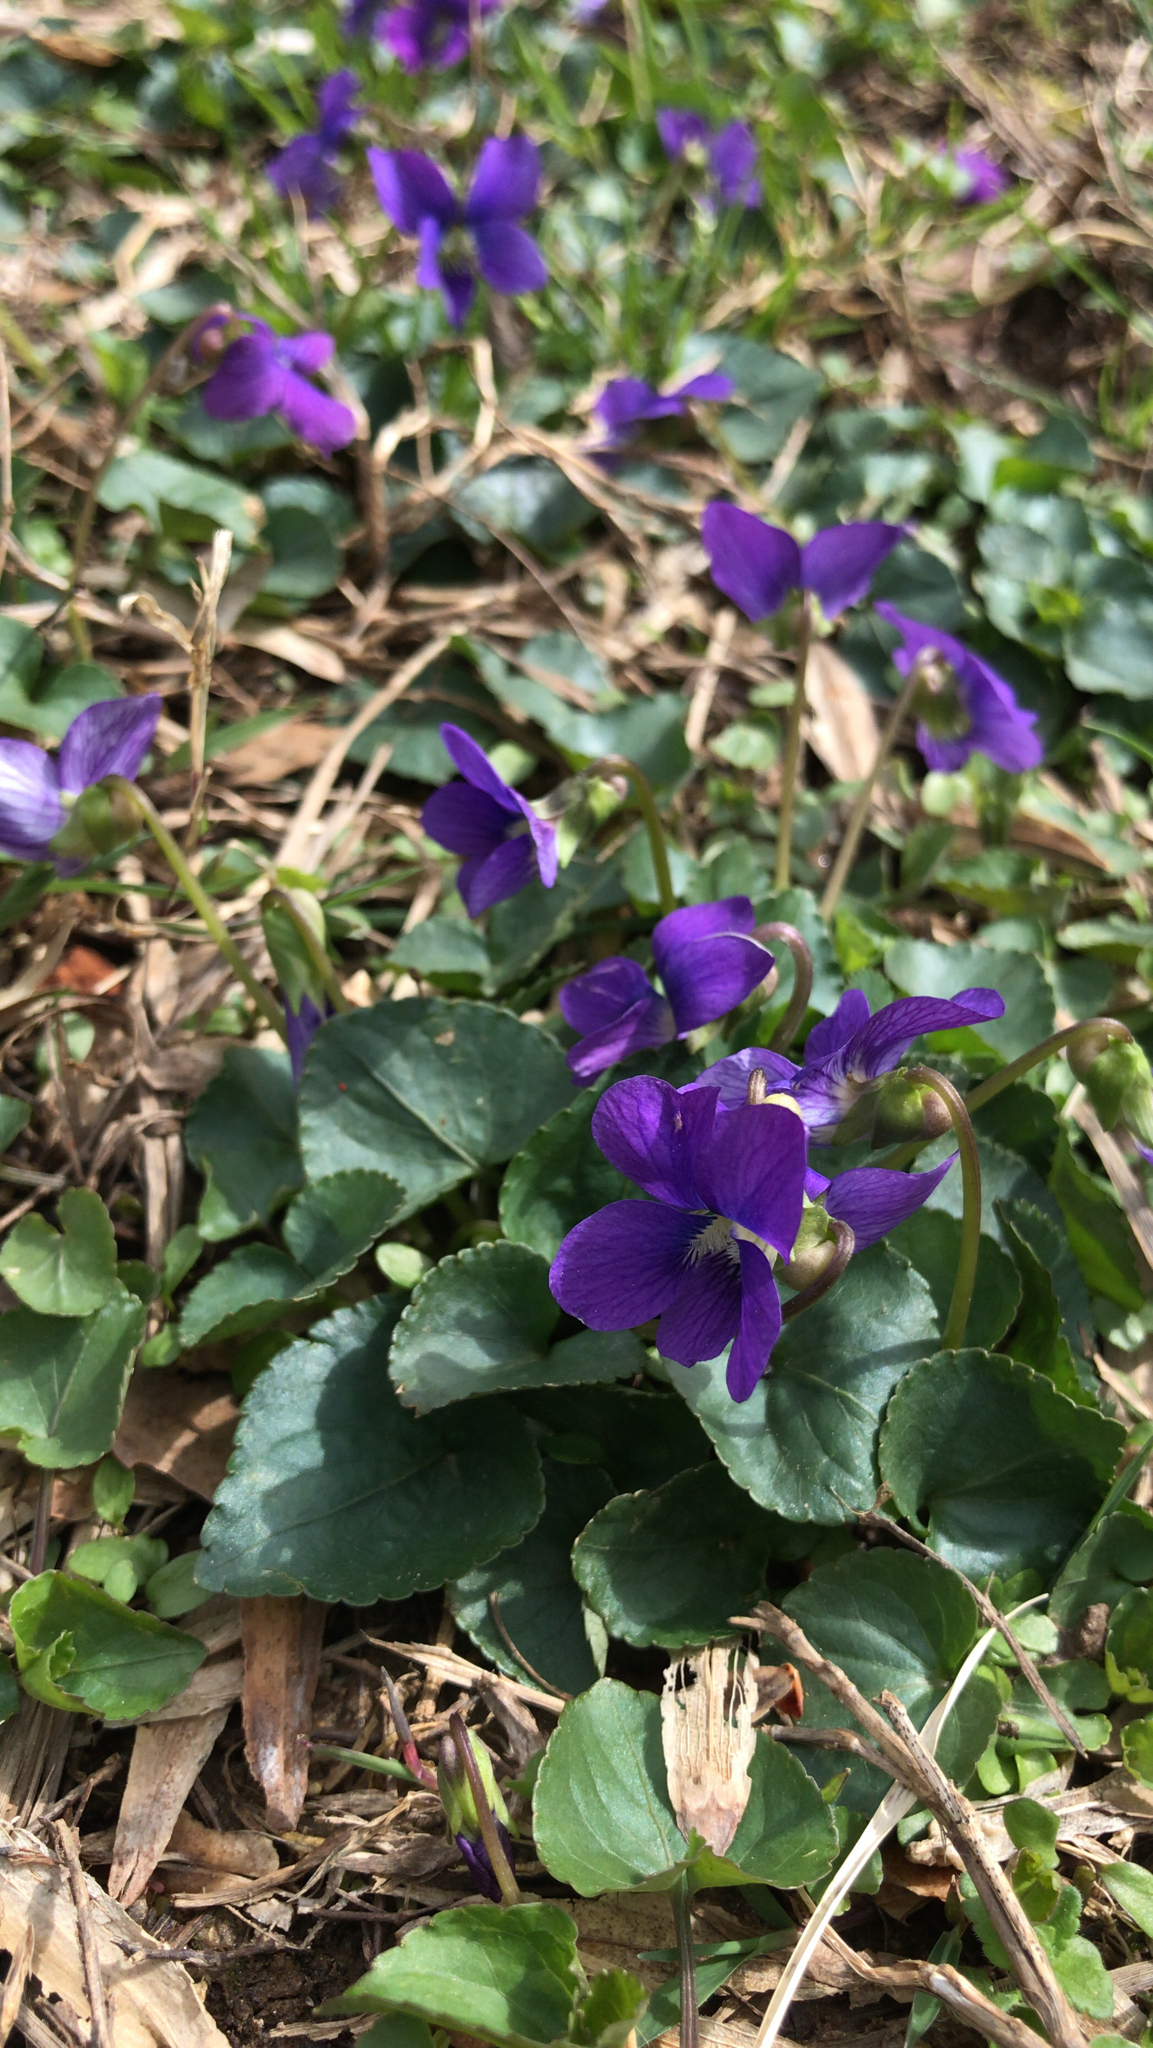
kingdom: Plantae
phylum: Tracheophyta
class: Magnoliopsida
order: Malpighiales
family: Violaceae
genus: Viola
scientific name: Viola sororia
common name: Dooryard violet
